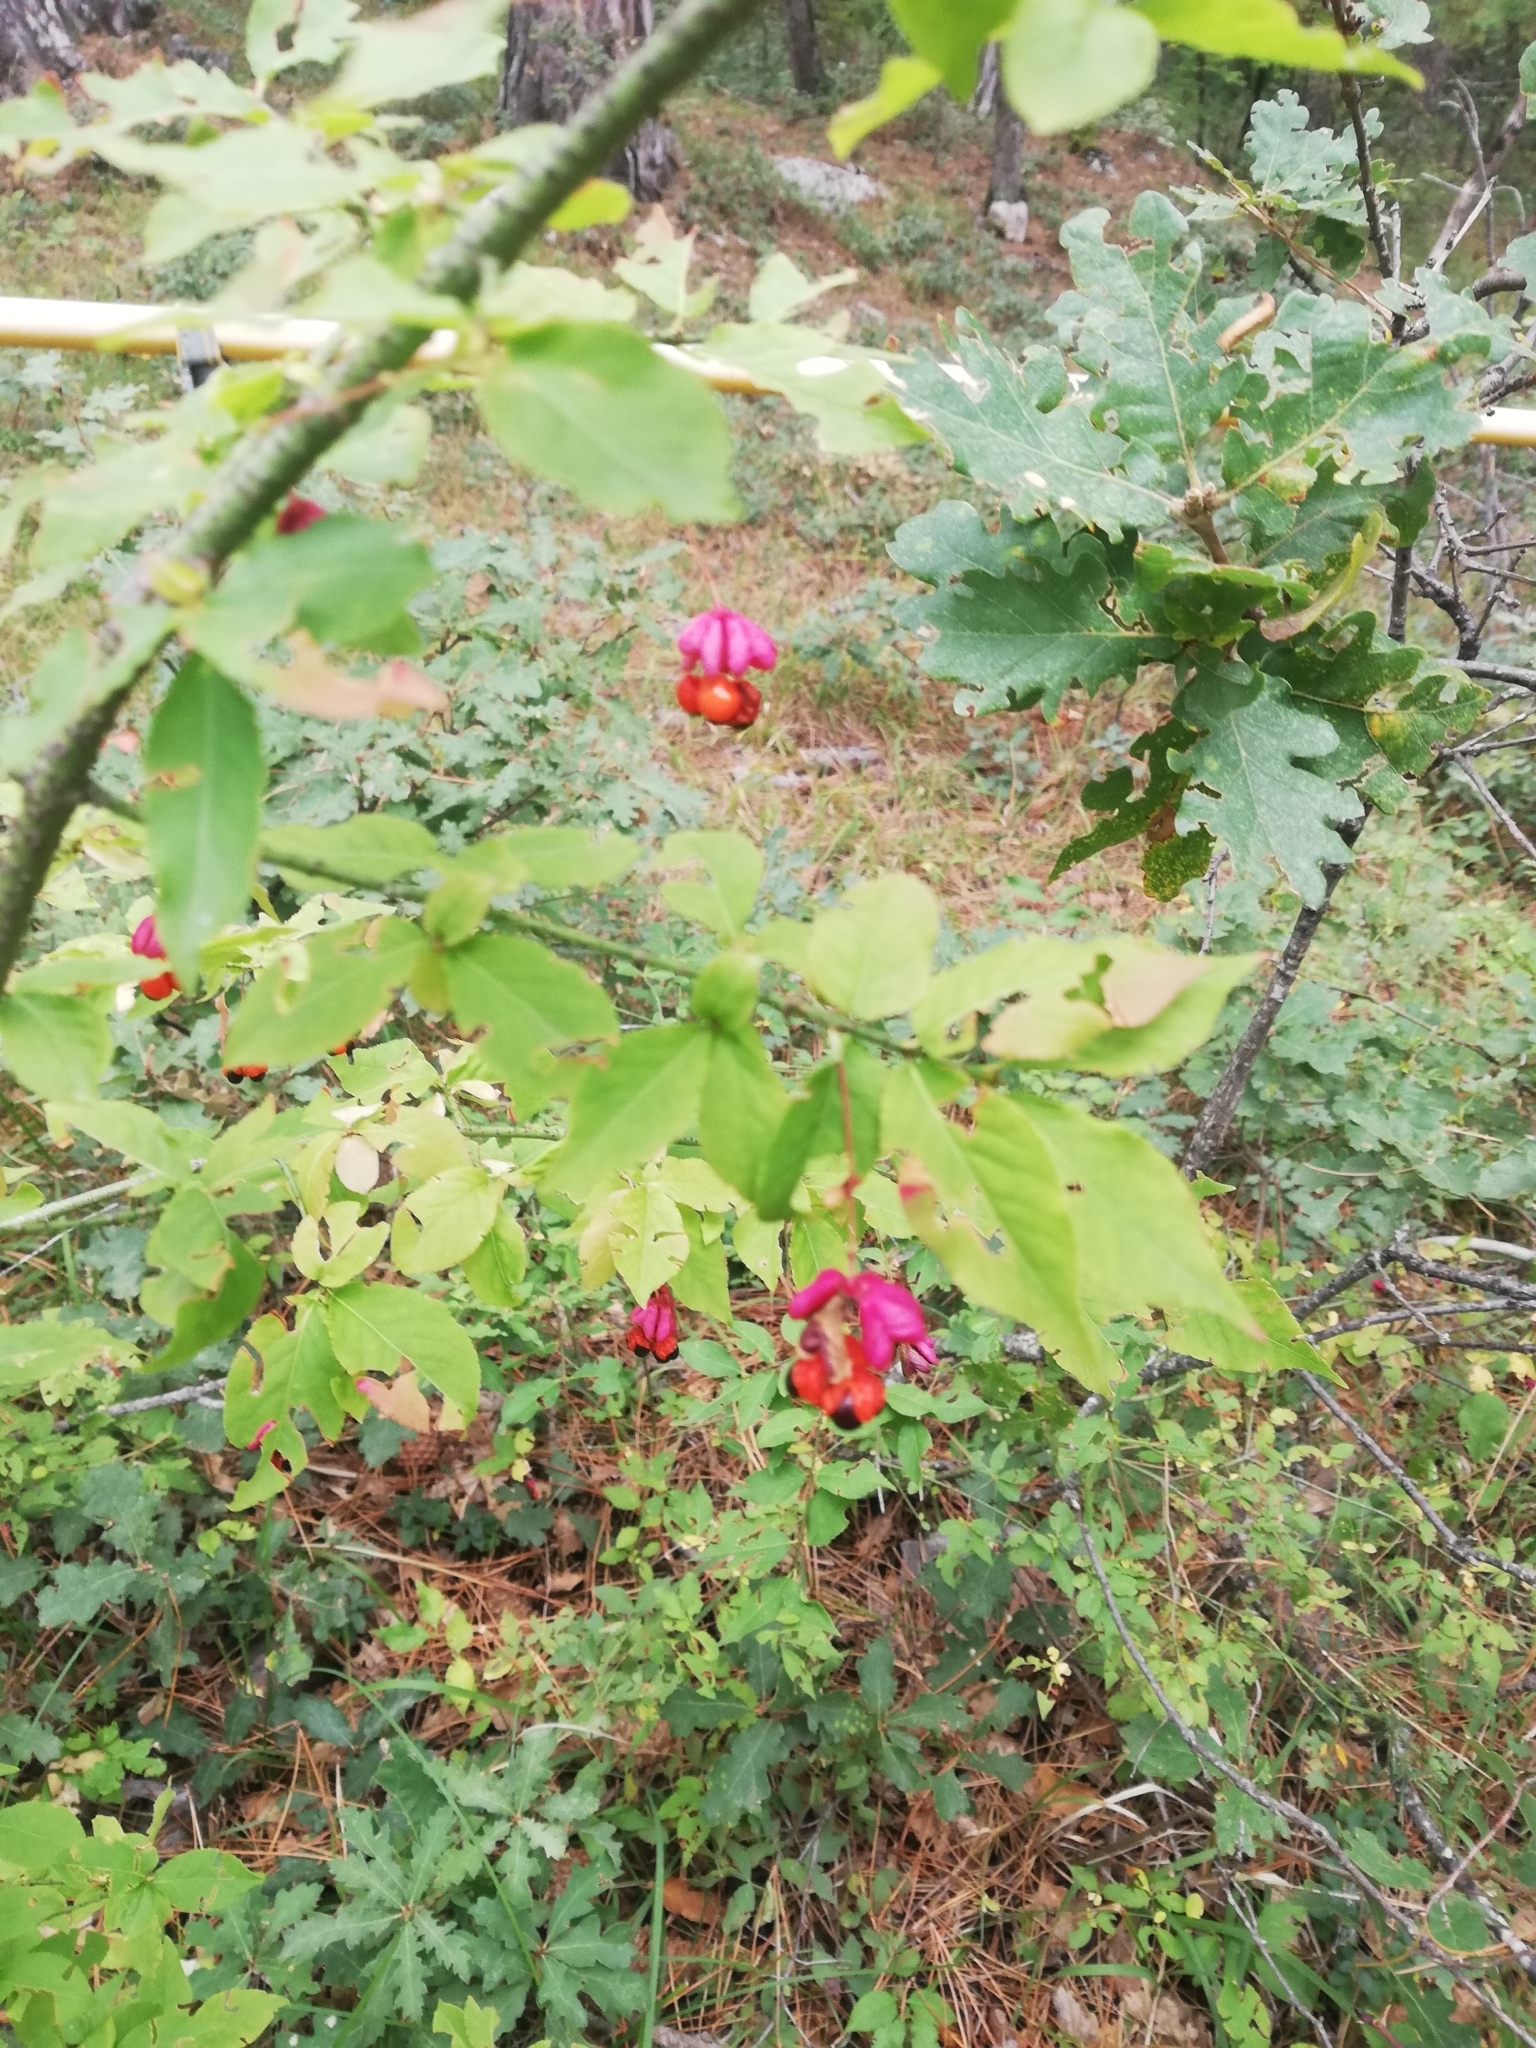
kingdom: Plantae
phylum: Tracheophyta
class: Magnoliopsida
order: Celastrales
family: Celastraceae
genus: Euonymus
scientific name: Euonymus verrucosus
